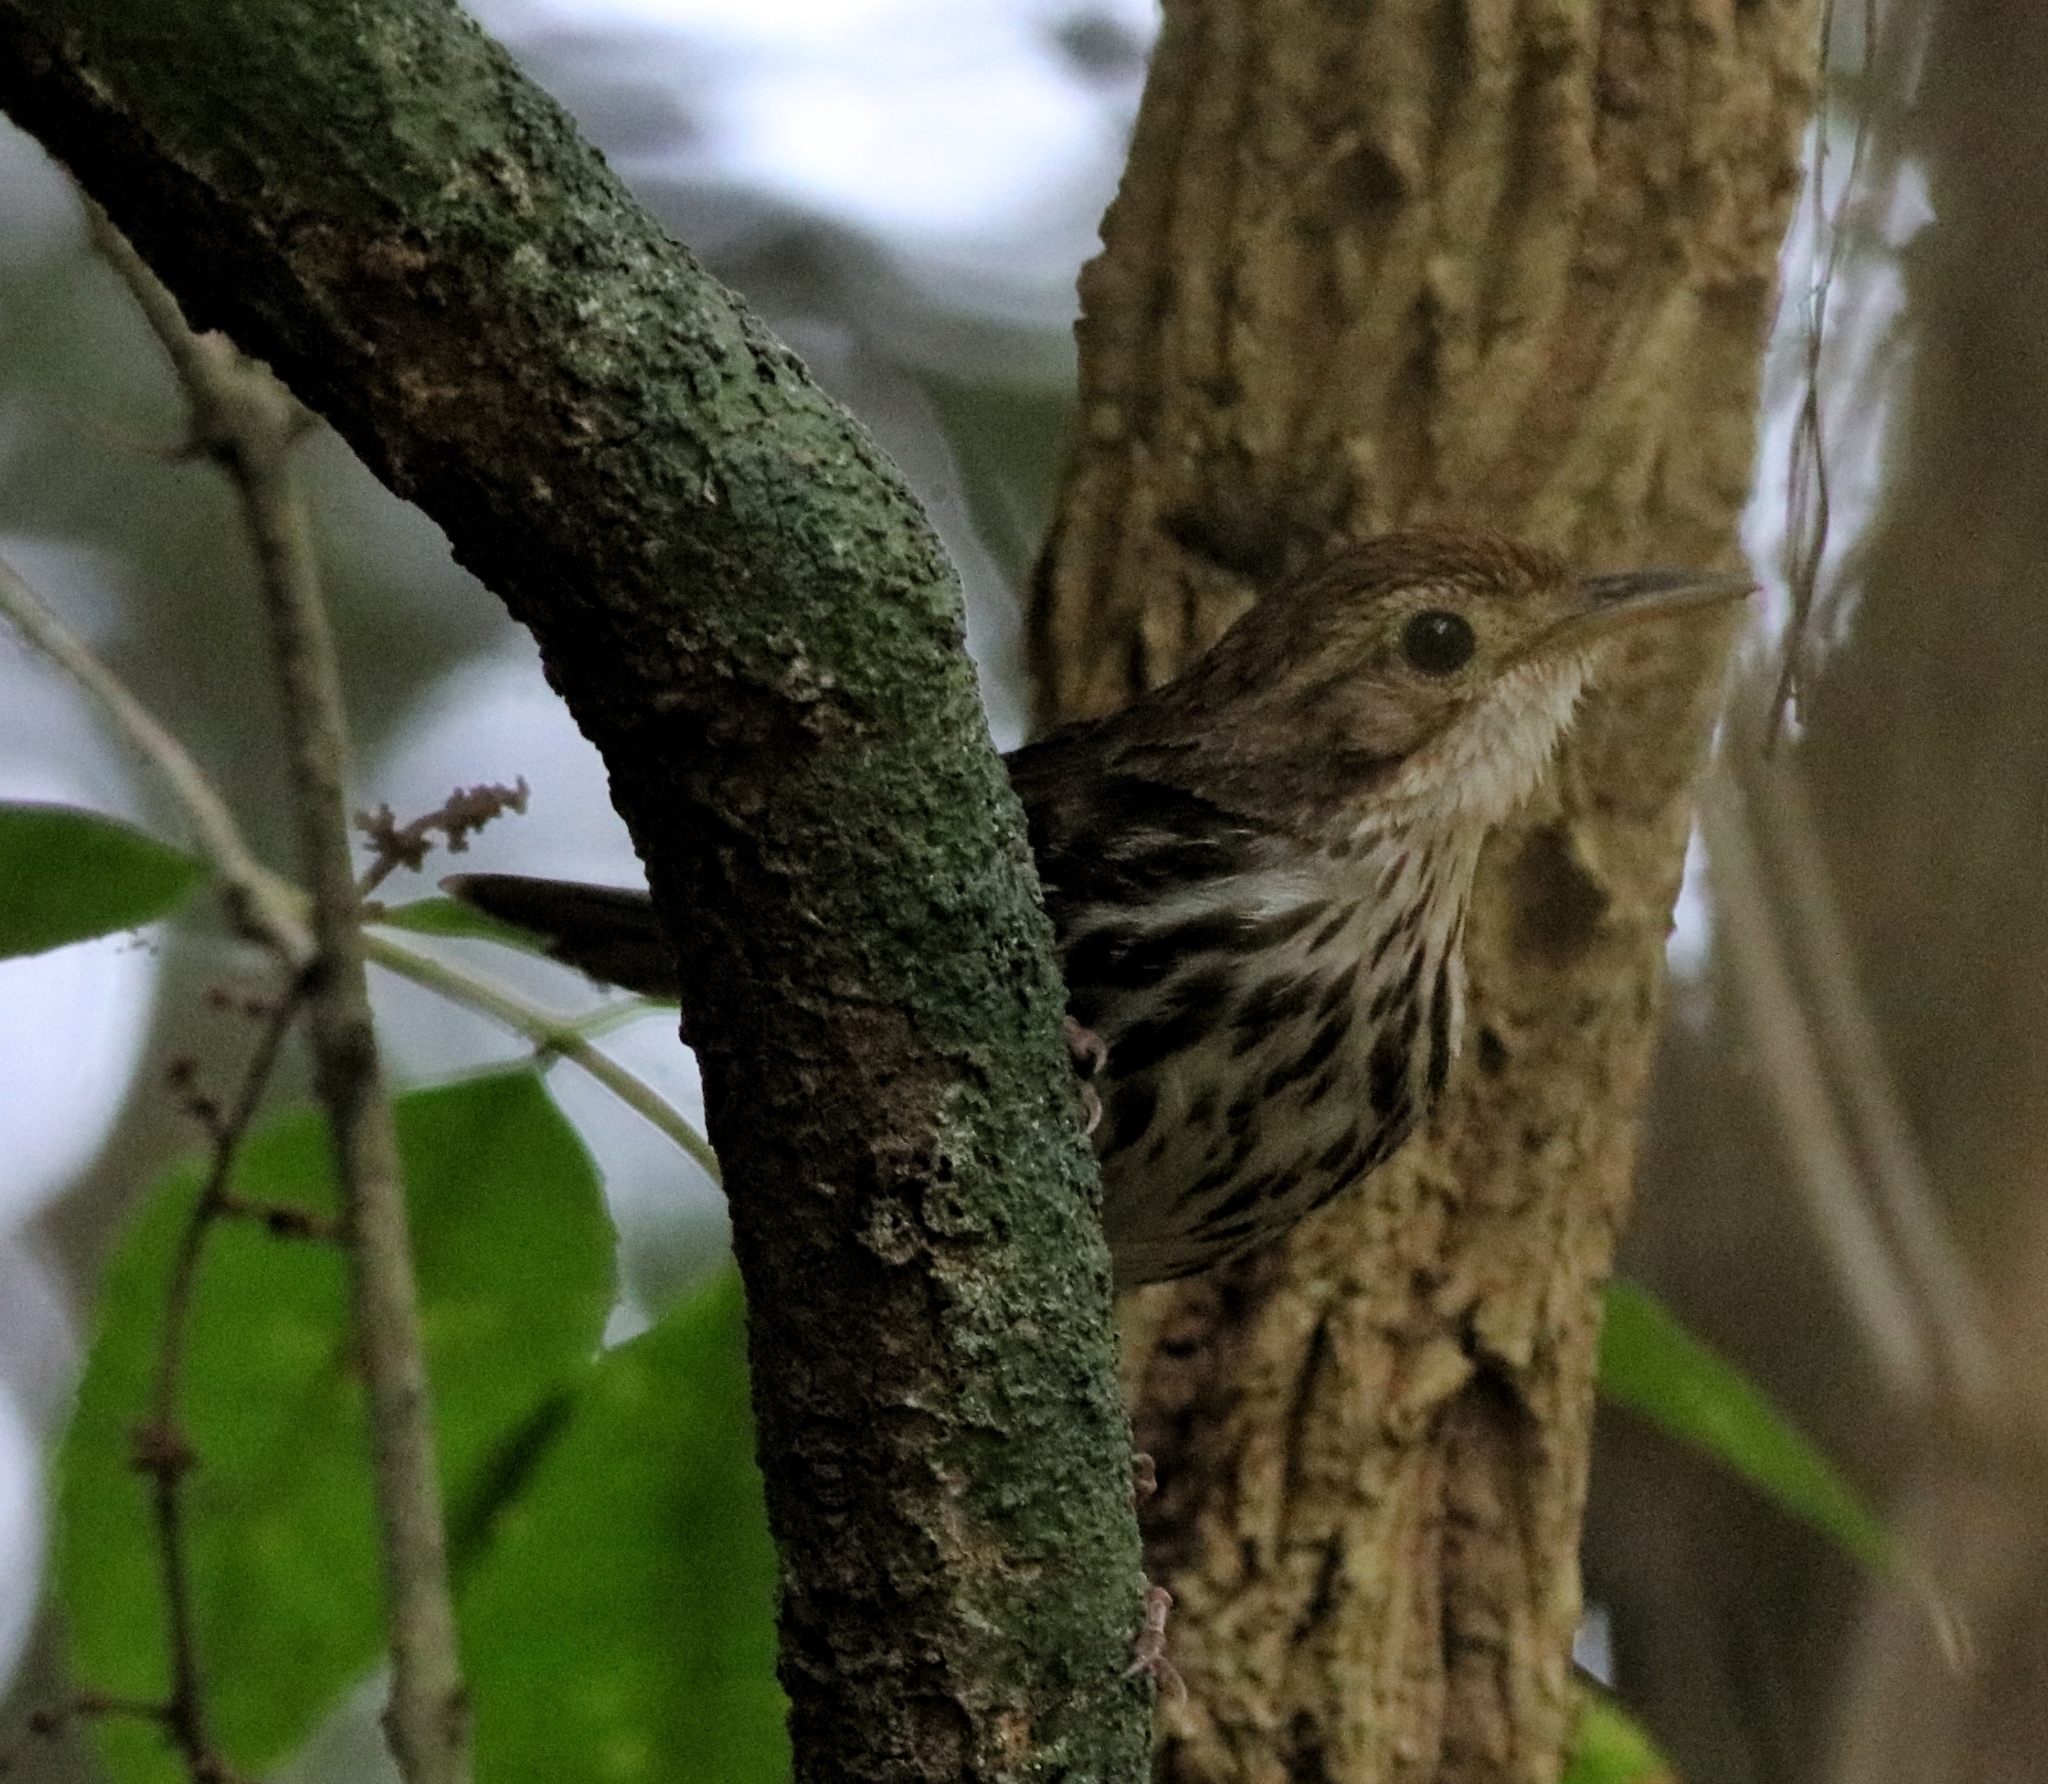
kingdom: Animalia
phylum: Chordata
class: Aves
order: Passeriformes
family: Pellorneidae
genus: Pellorneum
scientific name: Pellorneum ruficeps
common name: Puff-throated babbler
